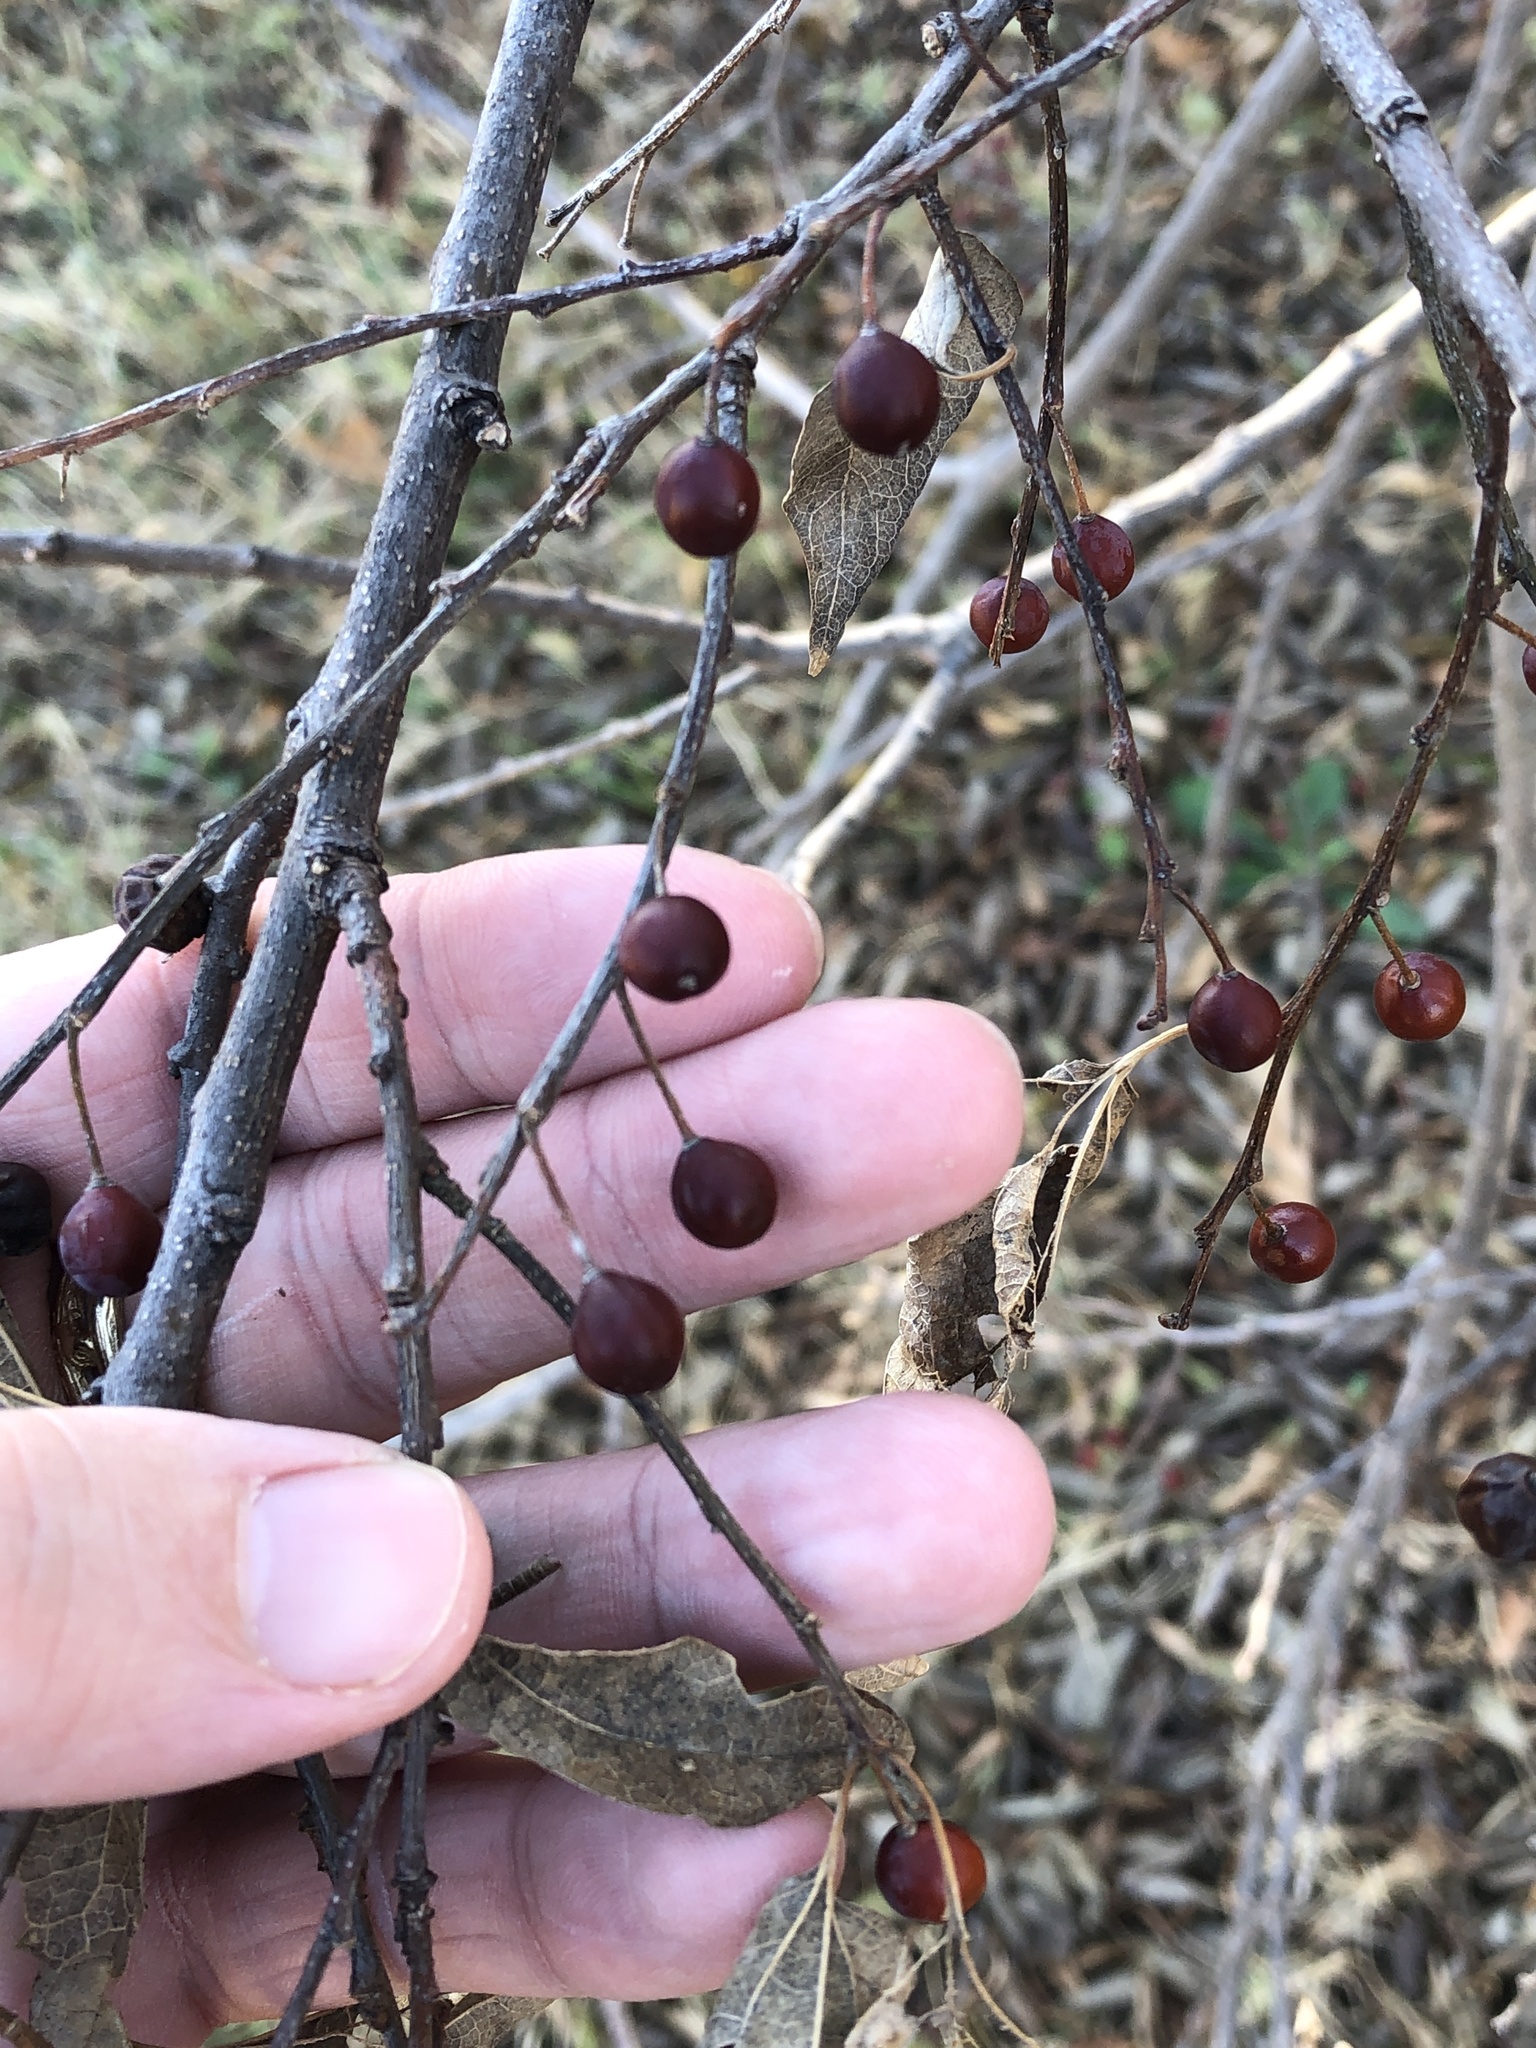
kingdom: Plantae
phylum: Tracheophyta
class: Magnoliopsida
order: Rosales
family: Cannabaceae
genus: Celtis
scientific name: Celtis laevigata
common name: Sugarberry
